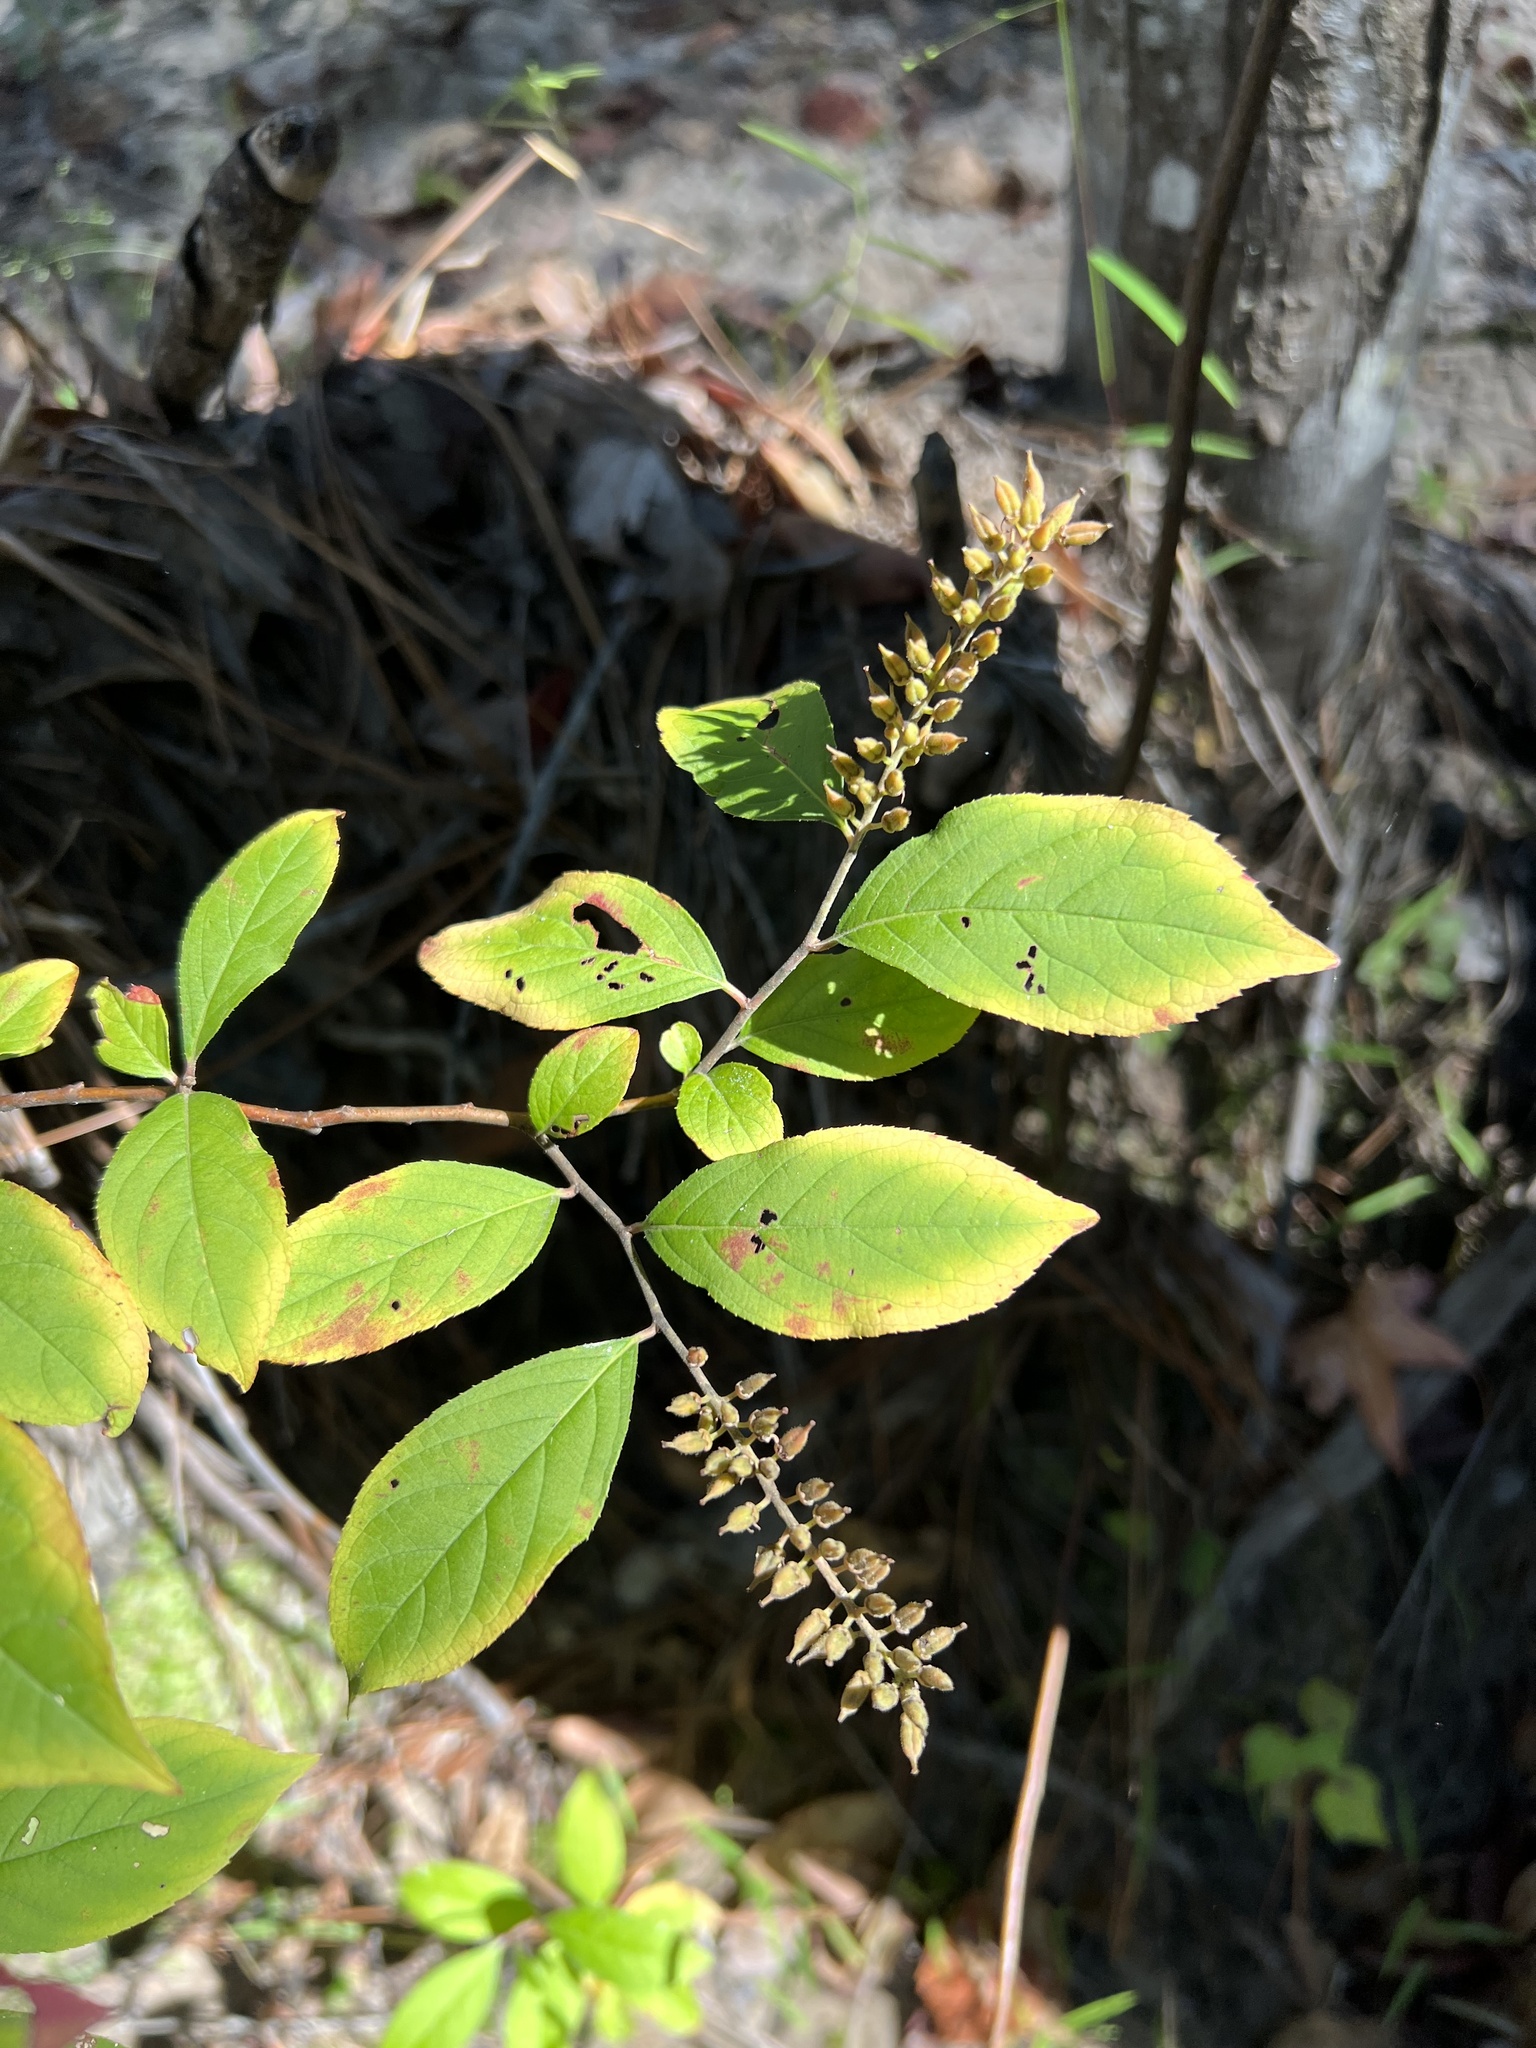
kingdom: Plantae
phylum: Tracheophyta
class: Magnoliopsida
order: Saxifragales
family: Iteaceae
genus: Itea
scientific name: Itea virginica
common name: Sweetspire
